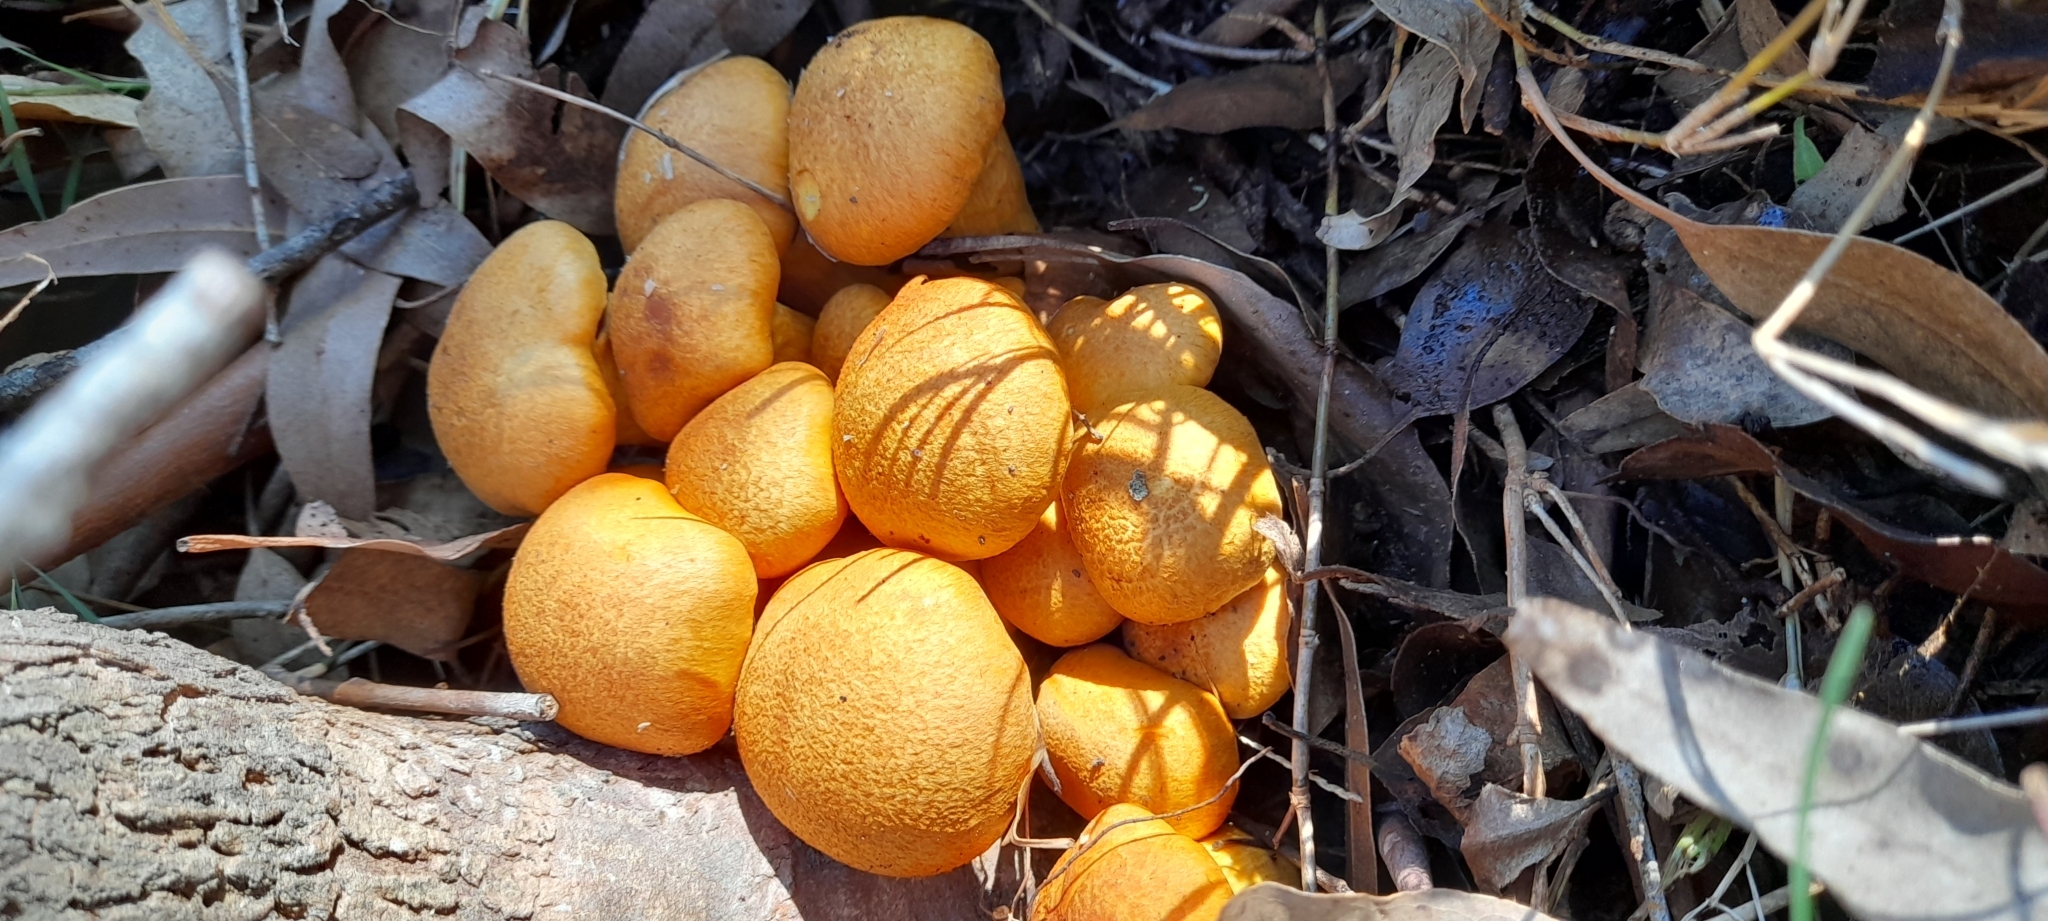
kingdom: Fungi
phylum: Basidiomycota
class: Agaricomycetes
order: Agaricales
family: Hymenogastraceae
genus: Gymnopilus
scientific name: Gymnopilus junonius
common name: Spectacular rustgill
